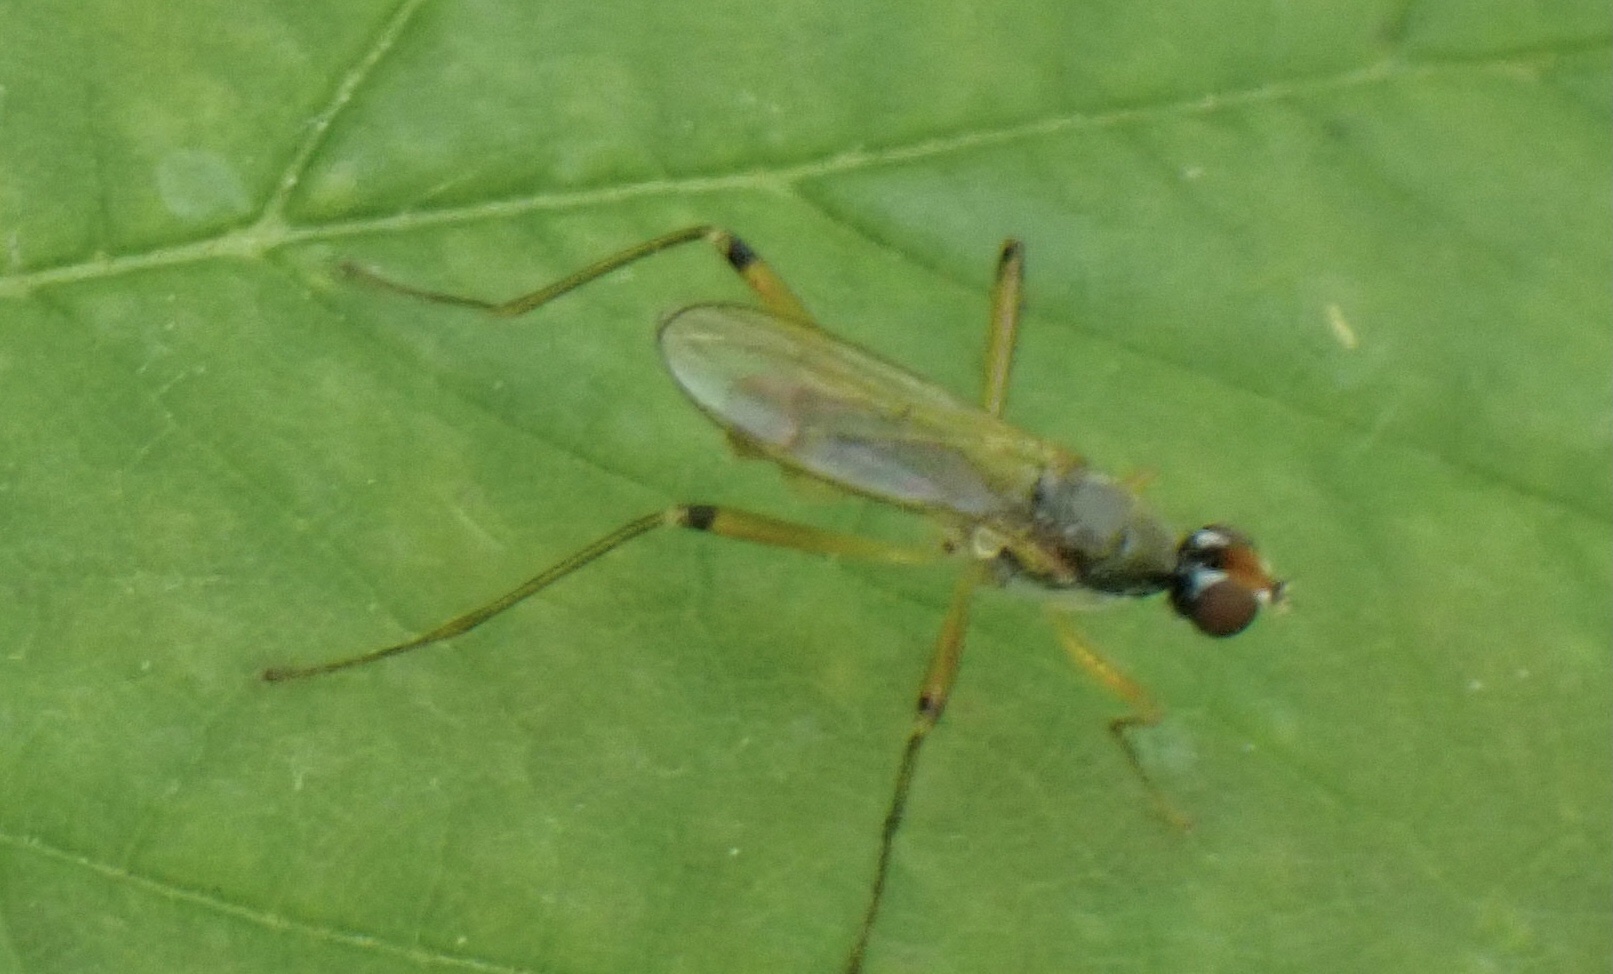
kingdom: Animalia
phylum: Arthropoda
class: Insecta
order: Diptera
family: Micropezidae
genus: Compsobata
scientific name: Compsobata cibaria
